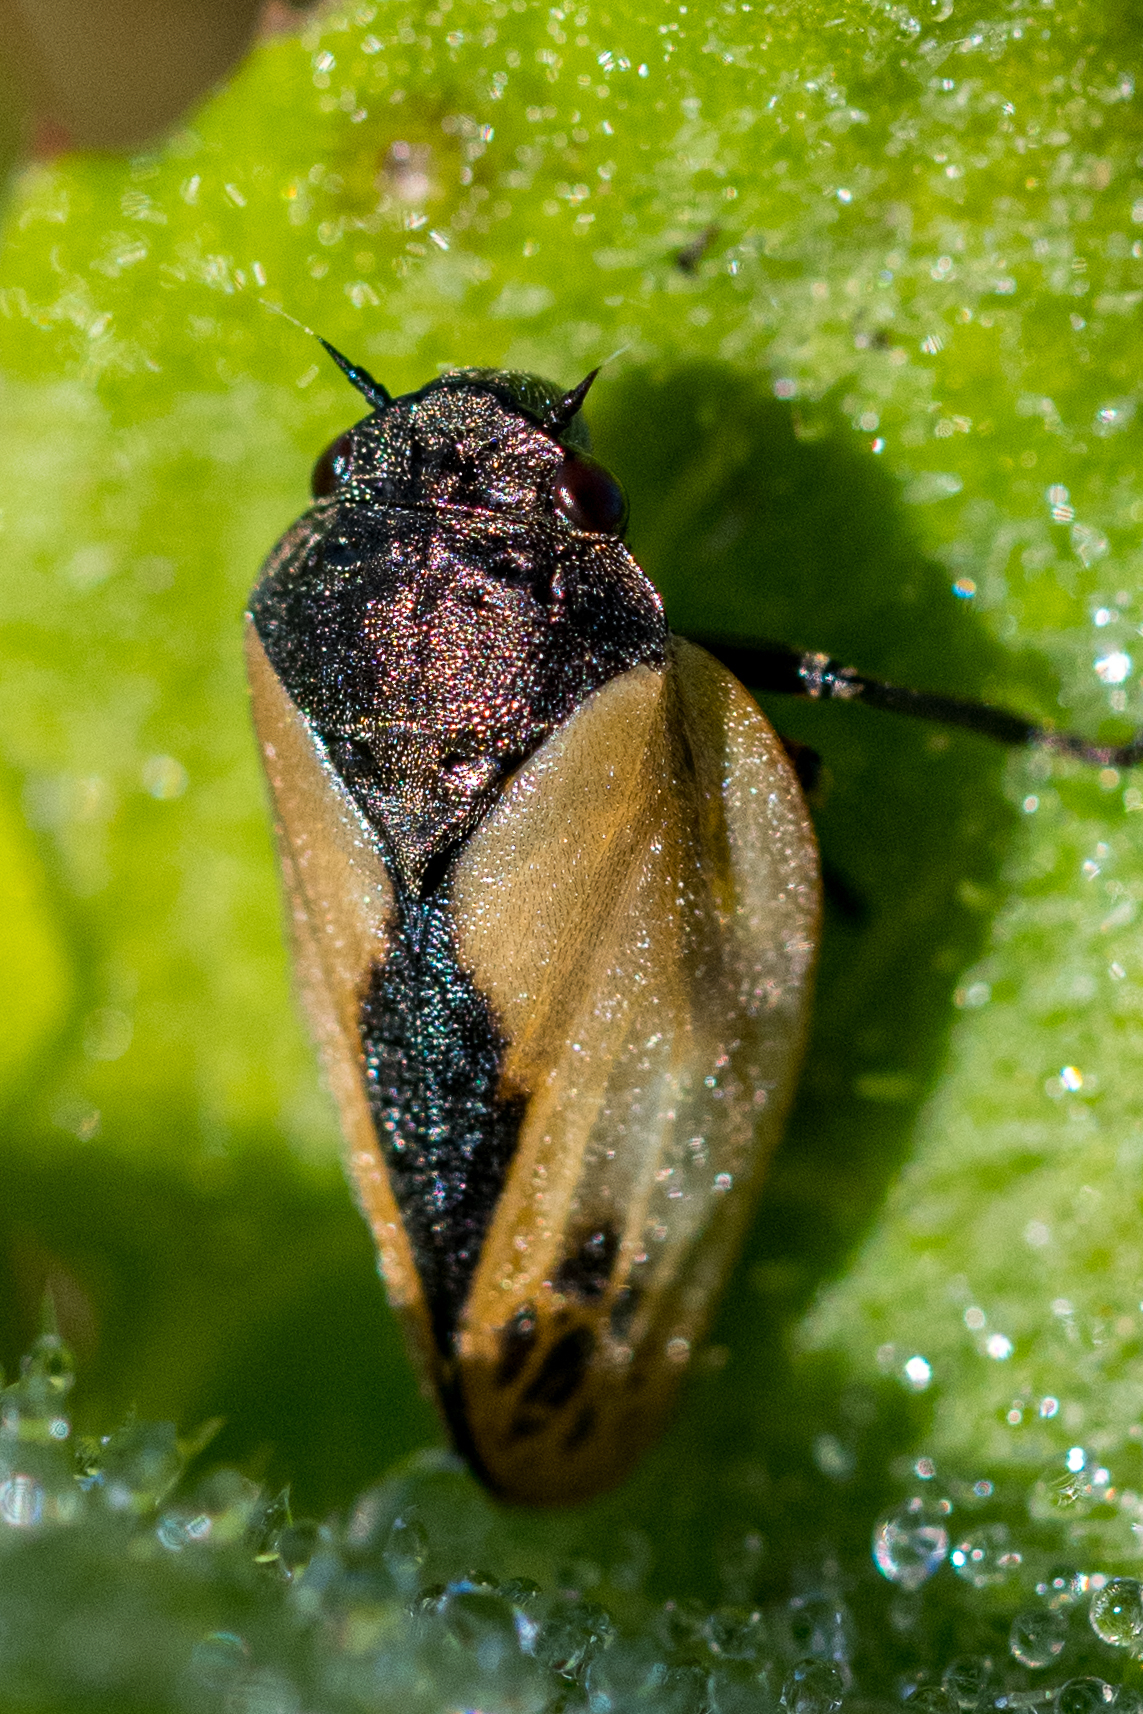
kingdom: Animalia
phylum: Arthropoda
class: Insecta
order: Hemiptera
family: Cercopidae
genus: Rhinaulax
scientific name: Rhinaulax analis
